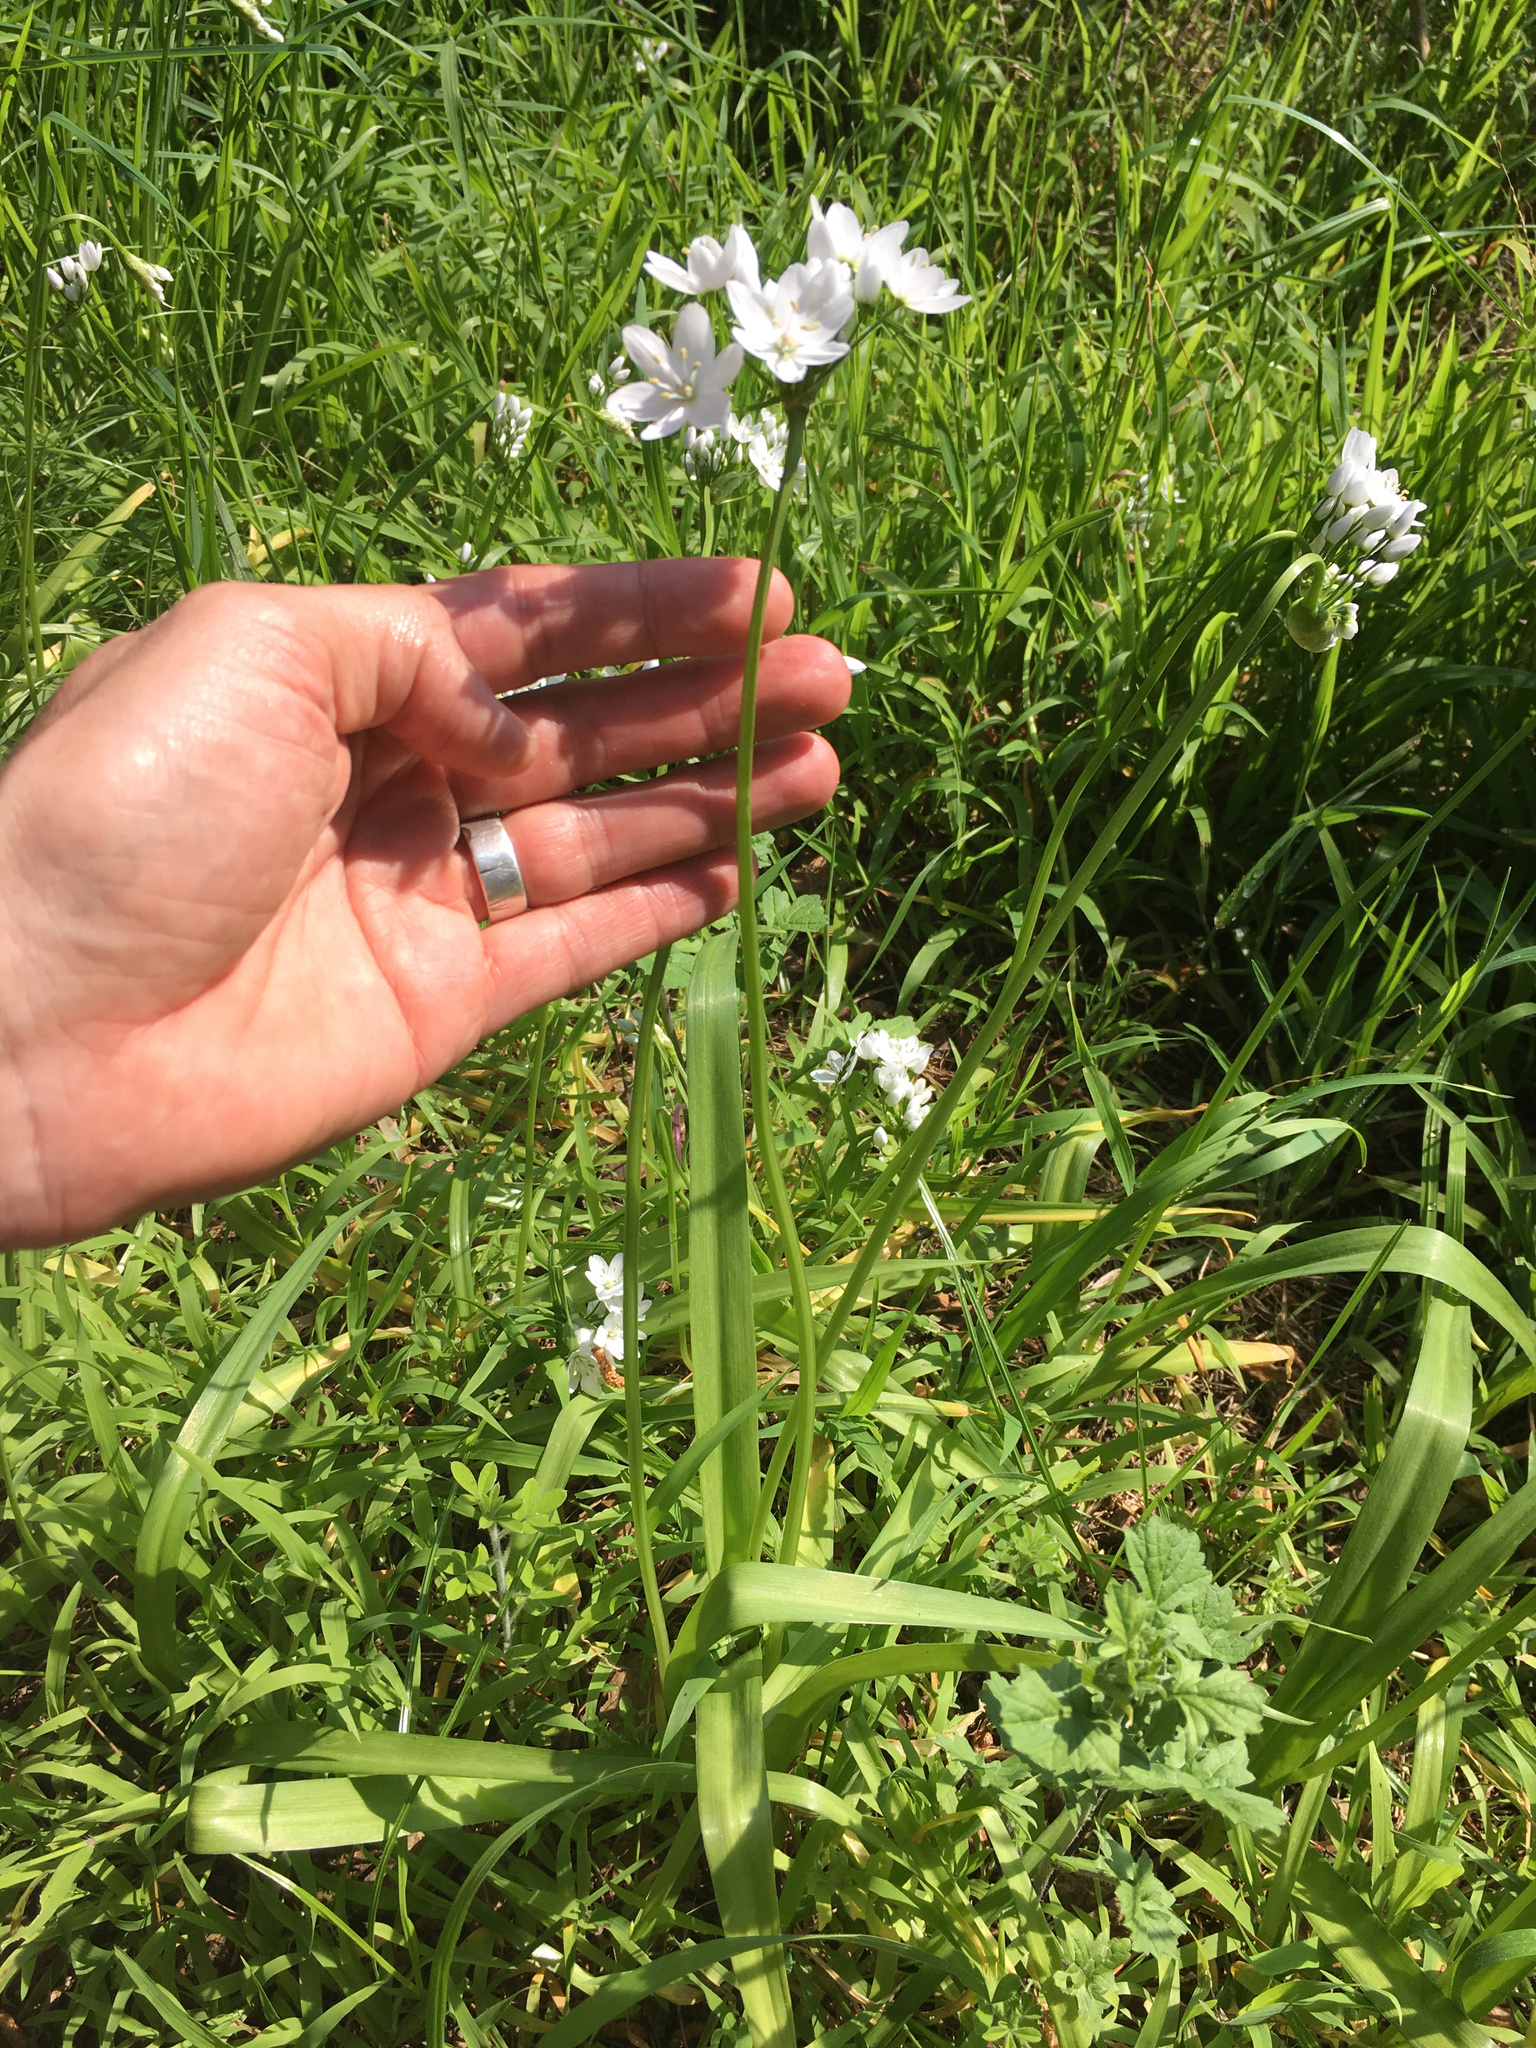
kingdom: Plantae
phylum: Tracheophyta
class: Liliopsida
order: Asparagales
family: Amaryllidaceae
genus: Allium
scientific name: Allium triquetrum
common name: Three-cornered garlic
